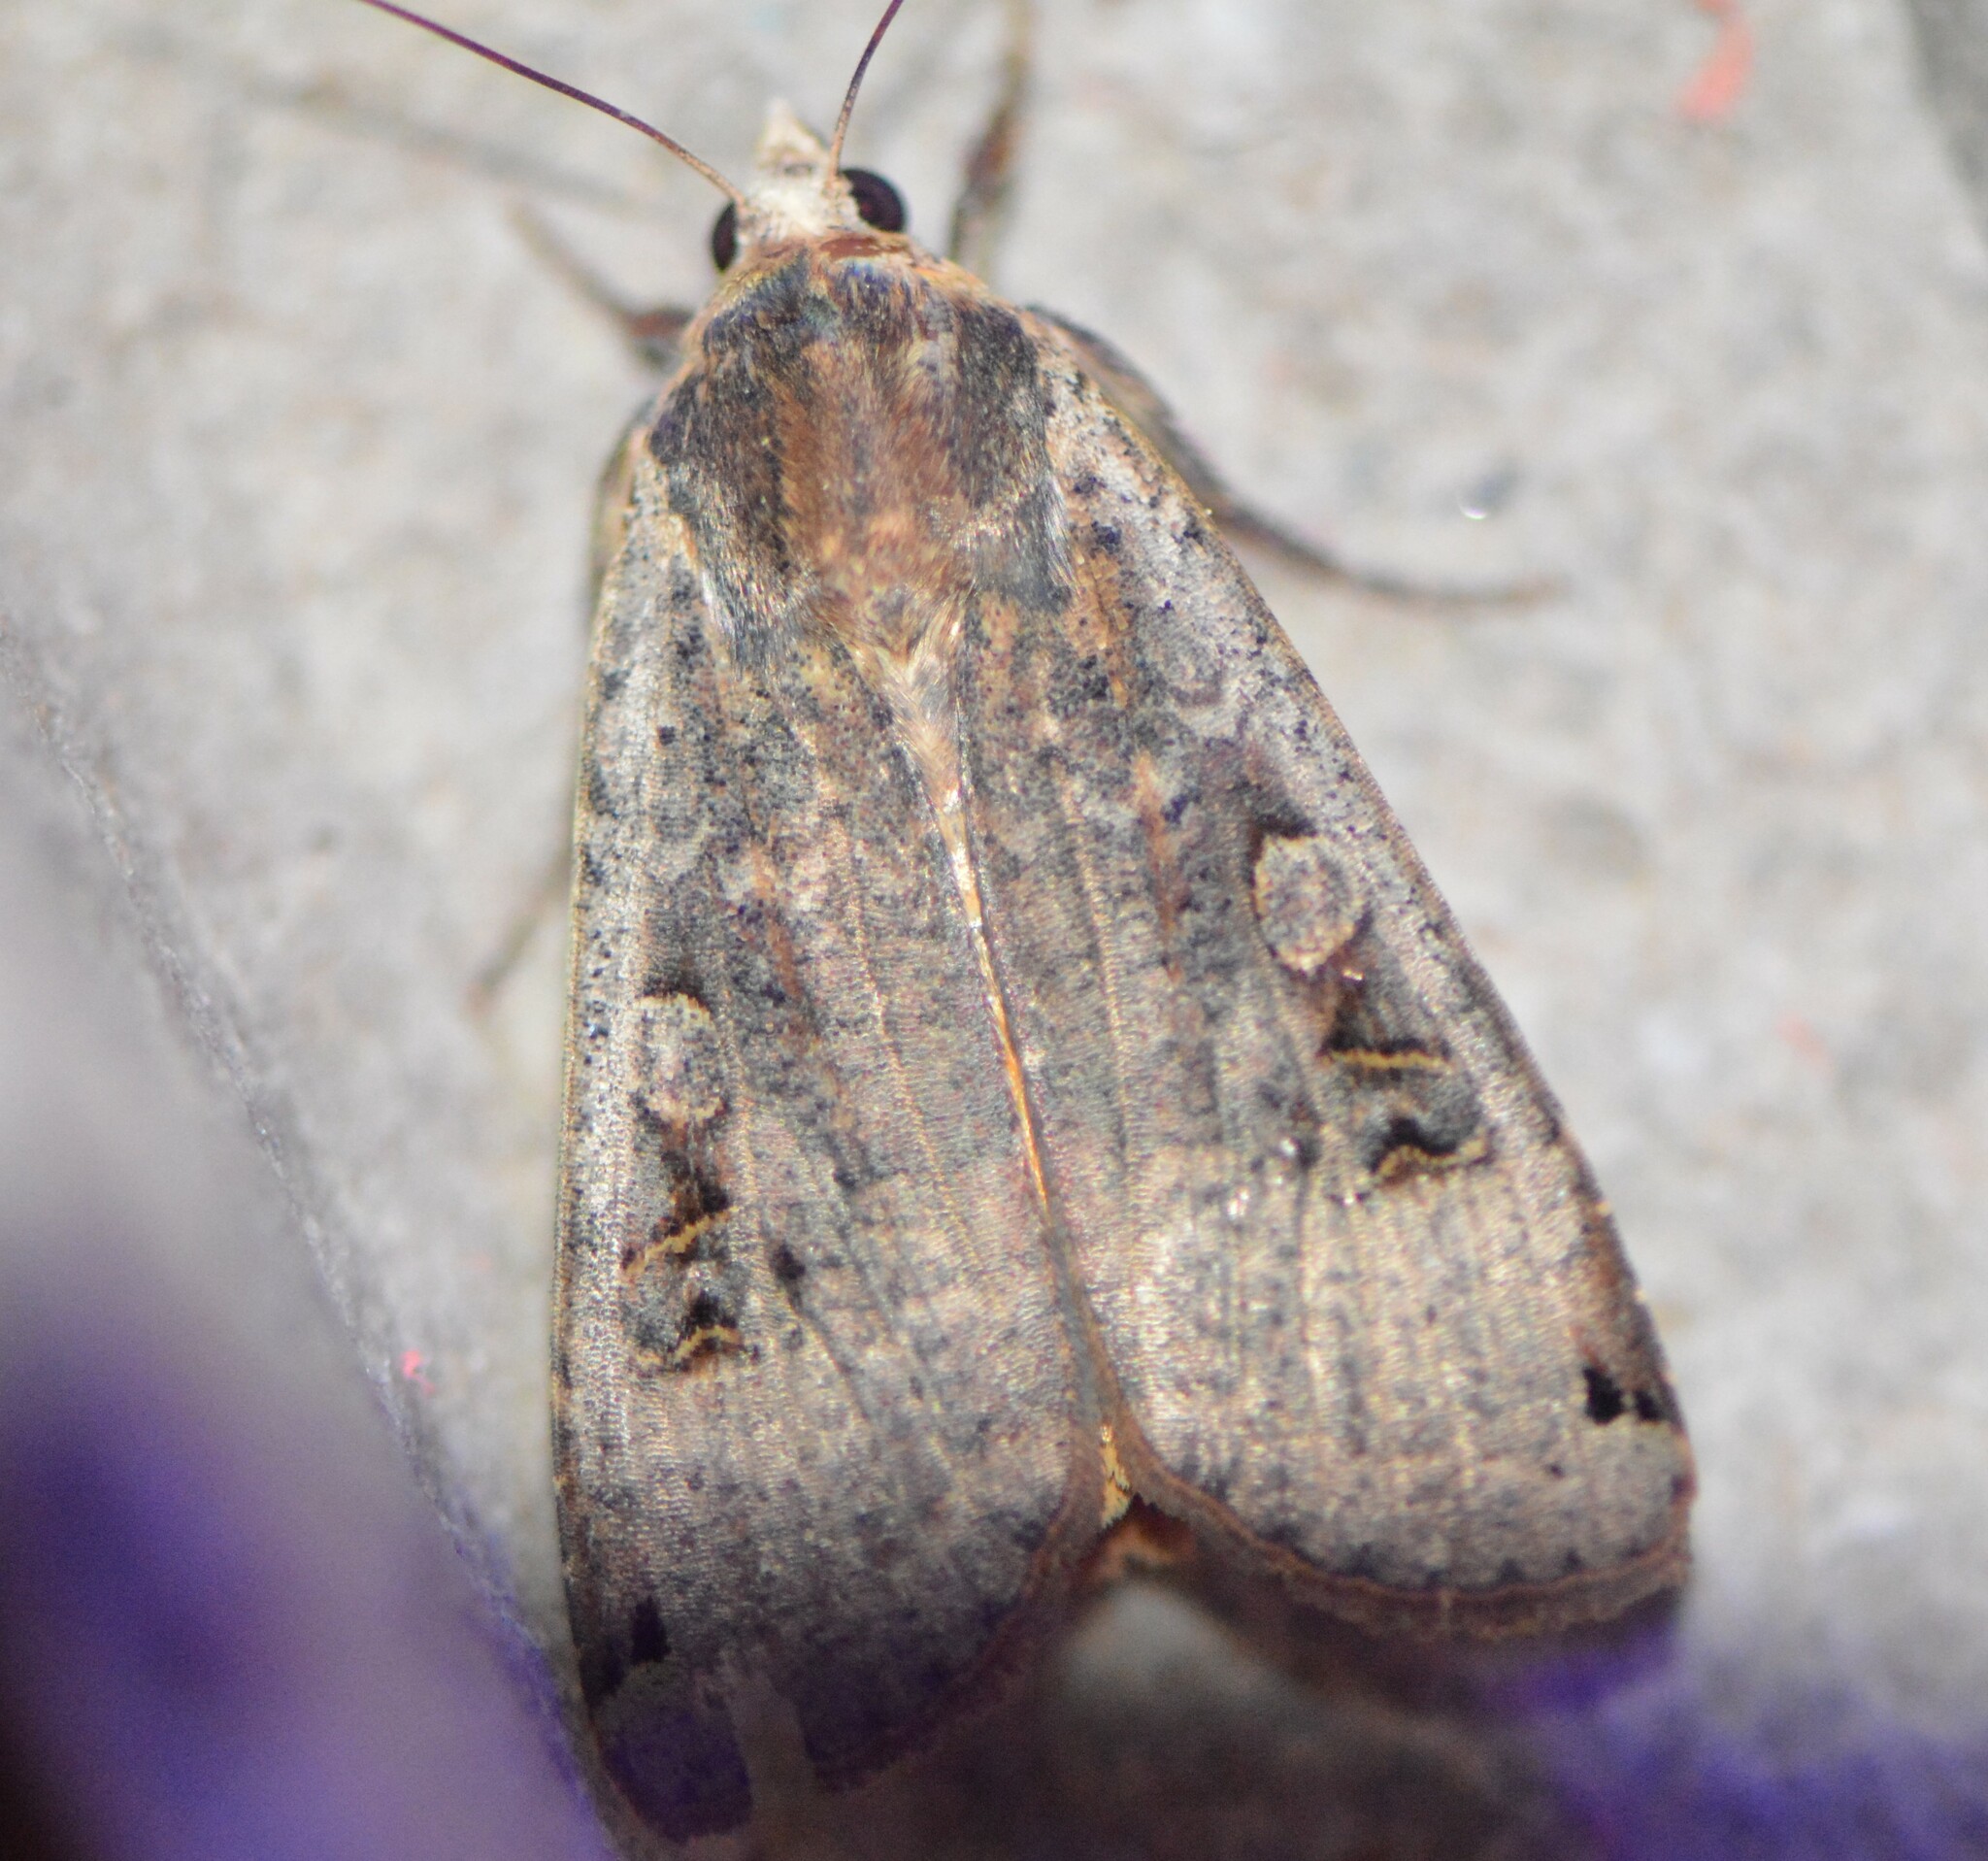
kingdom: Animalia
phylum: Arthropoda
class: Insecta
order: Lepidoptera
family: Noctuidae
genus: Noctua
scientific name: Noctua pronuba
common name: Large yellow underwing
